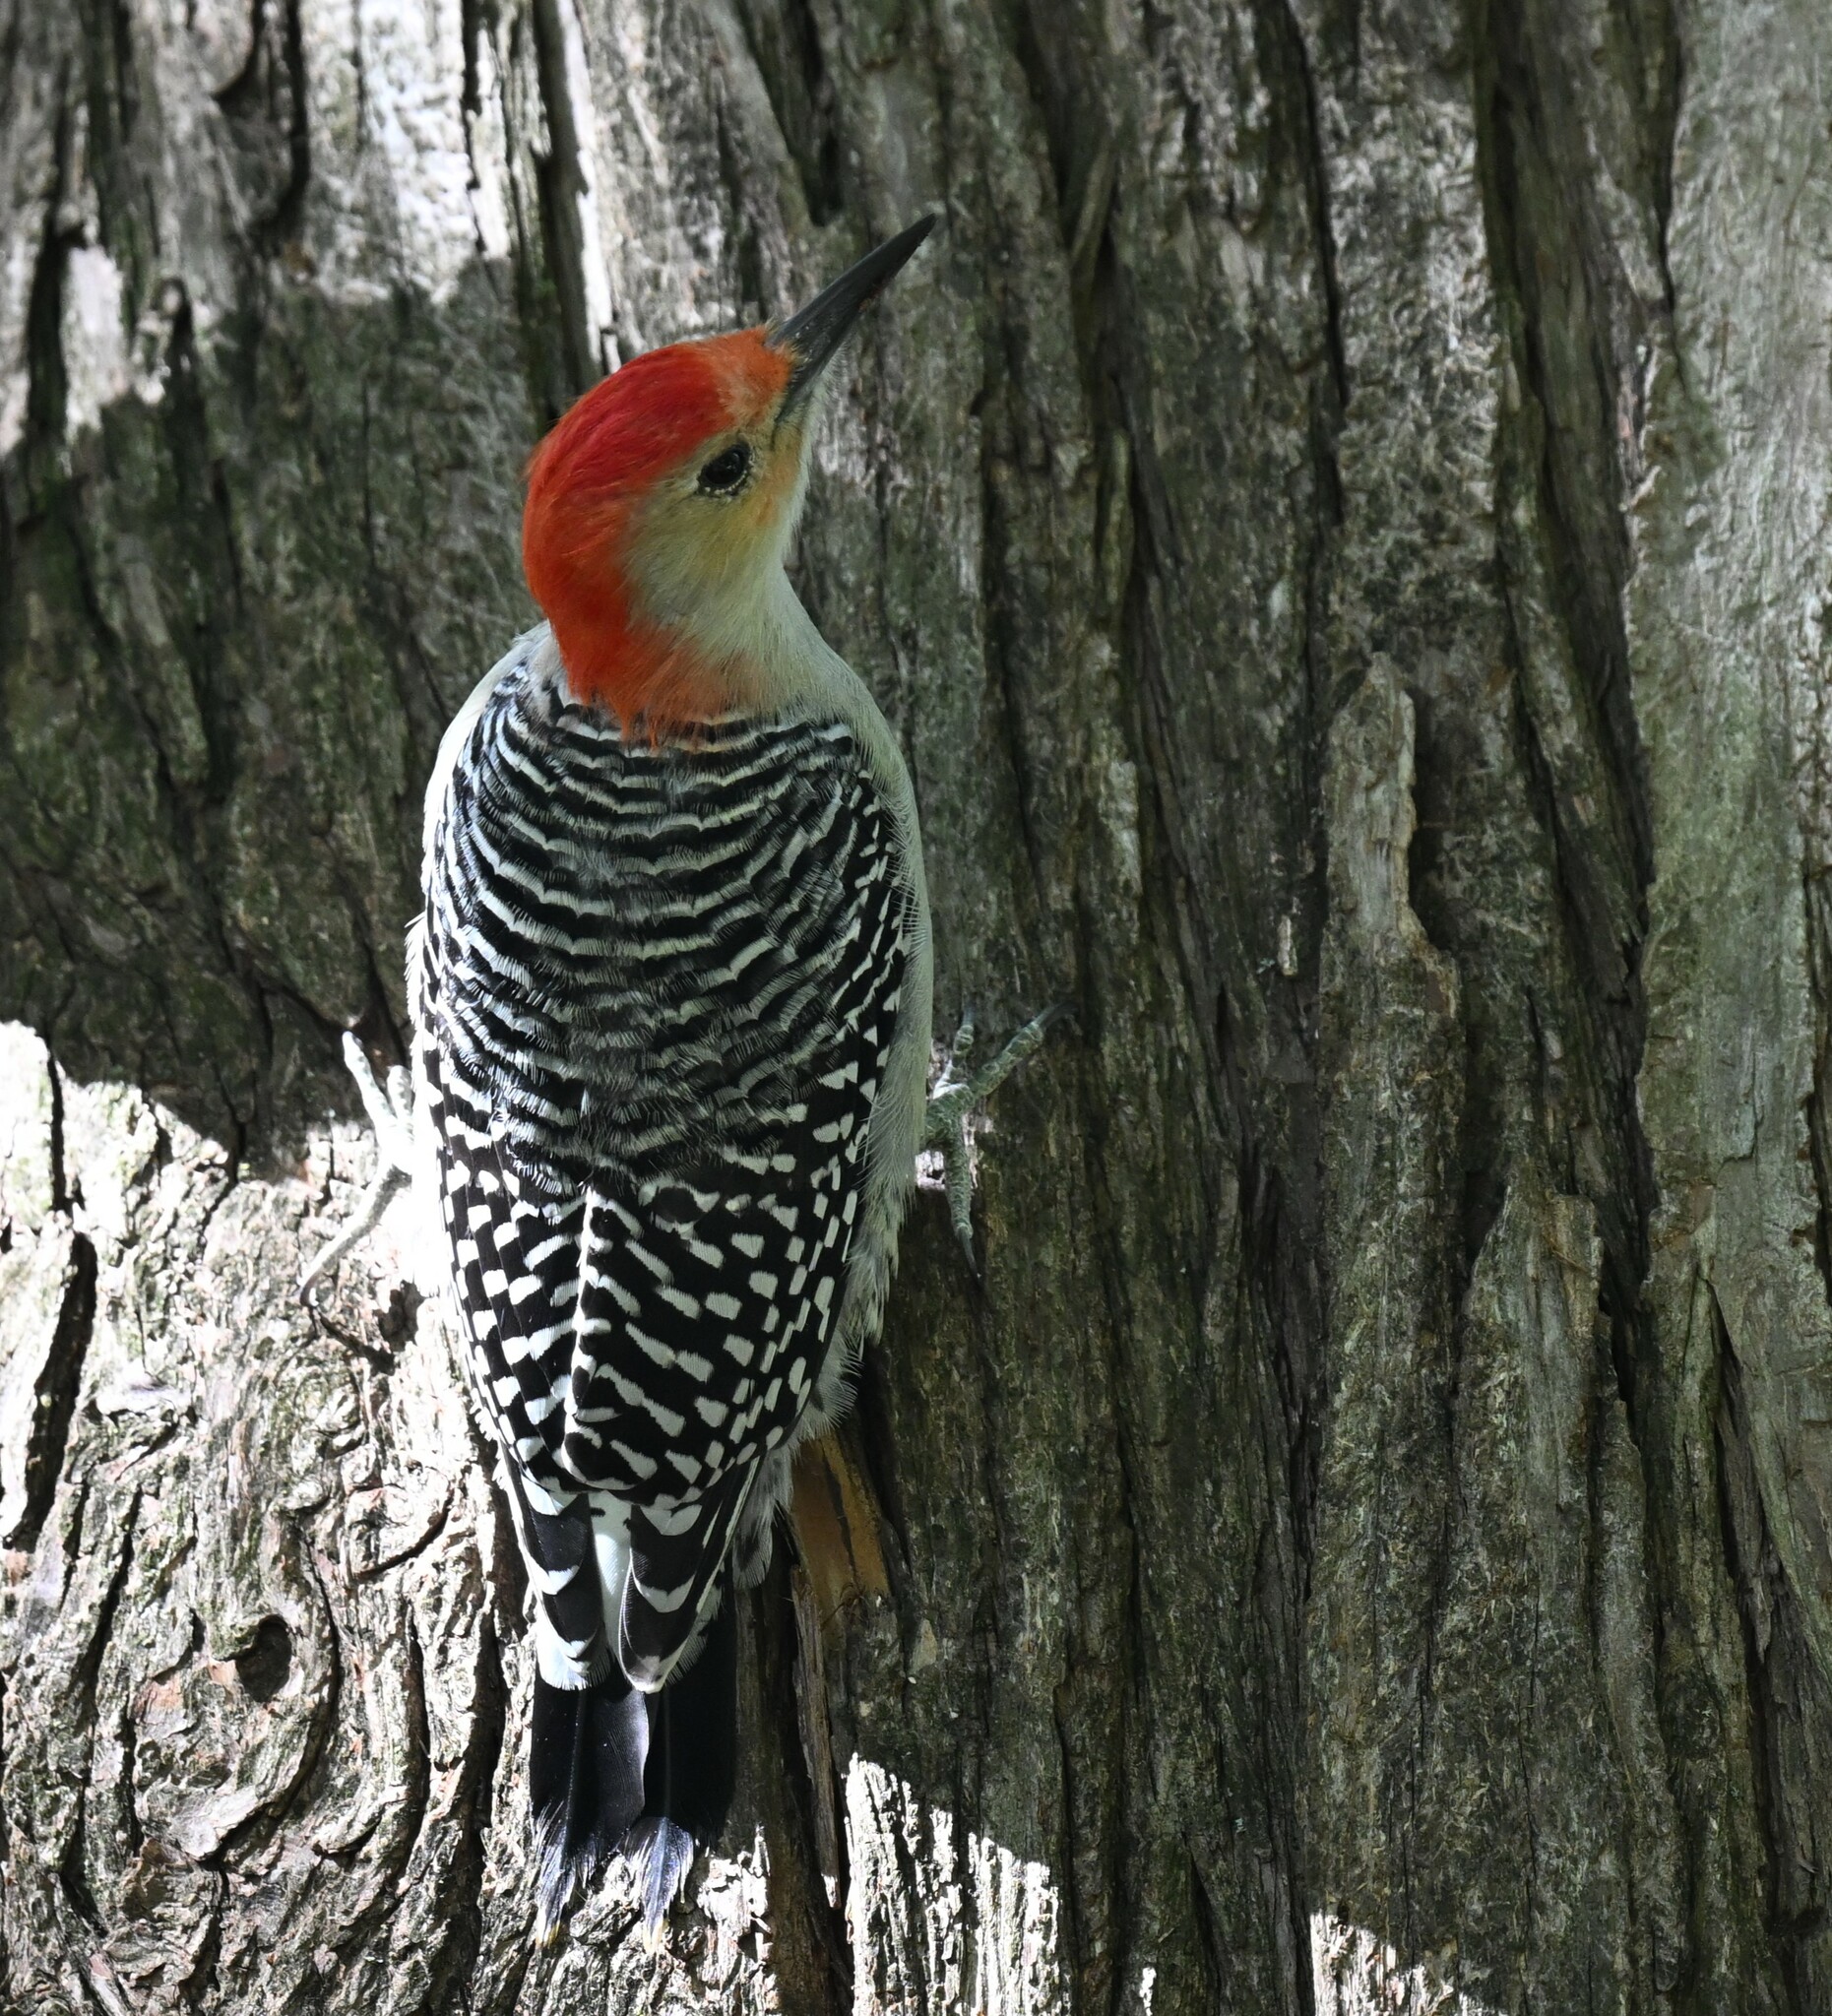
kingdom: Animalia
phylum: Chordata
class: Aves
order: Piciformes
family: Picidae
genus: Melanerpes
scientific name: Melanerpes carolinus
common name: Red-bellied woodpecker
